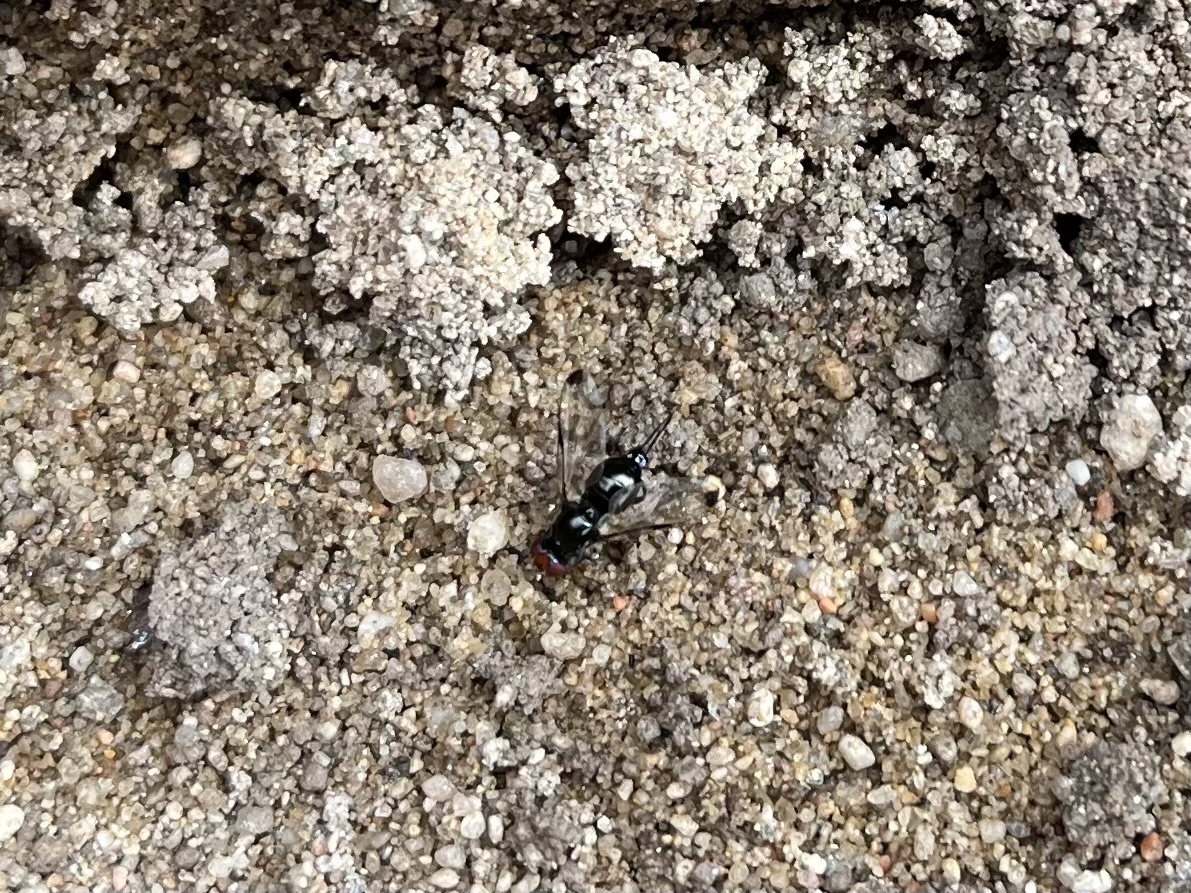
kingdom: Animalia
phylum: Arthropoda
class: Insecta
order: Diptera
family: Ulidiidae
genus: Seioptera
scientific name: Seioptera vibrans
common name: Dark-tipped wingwaver
